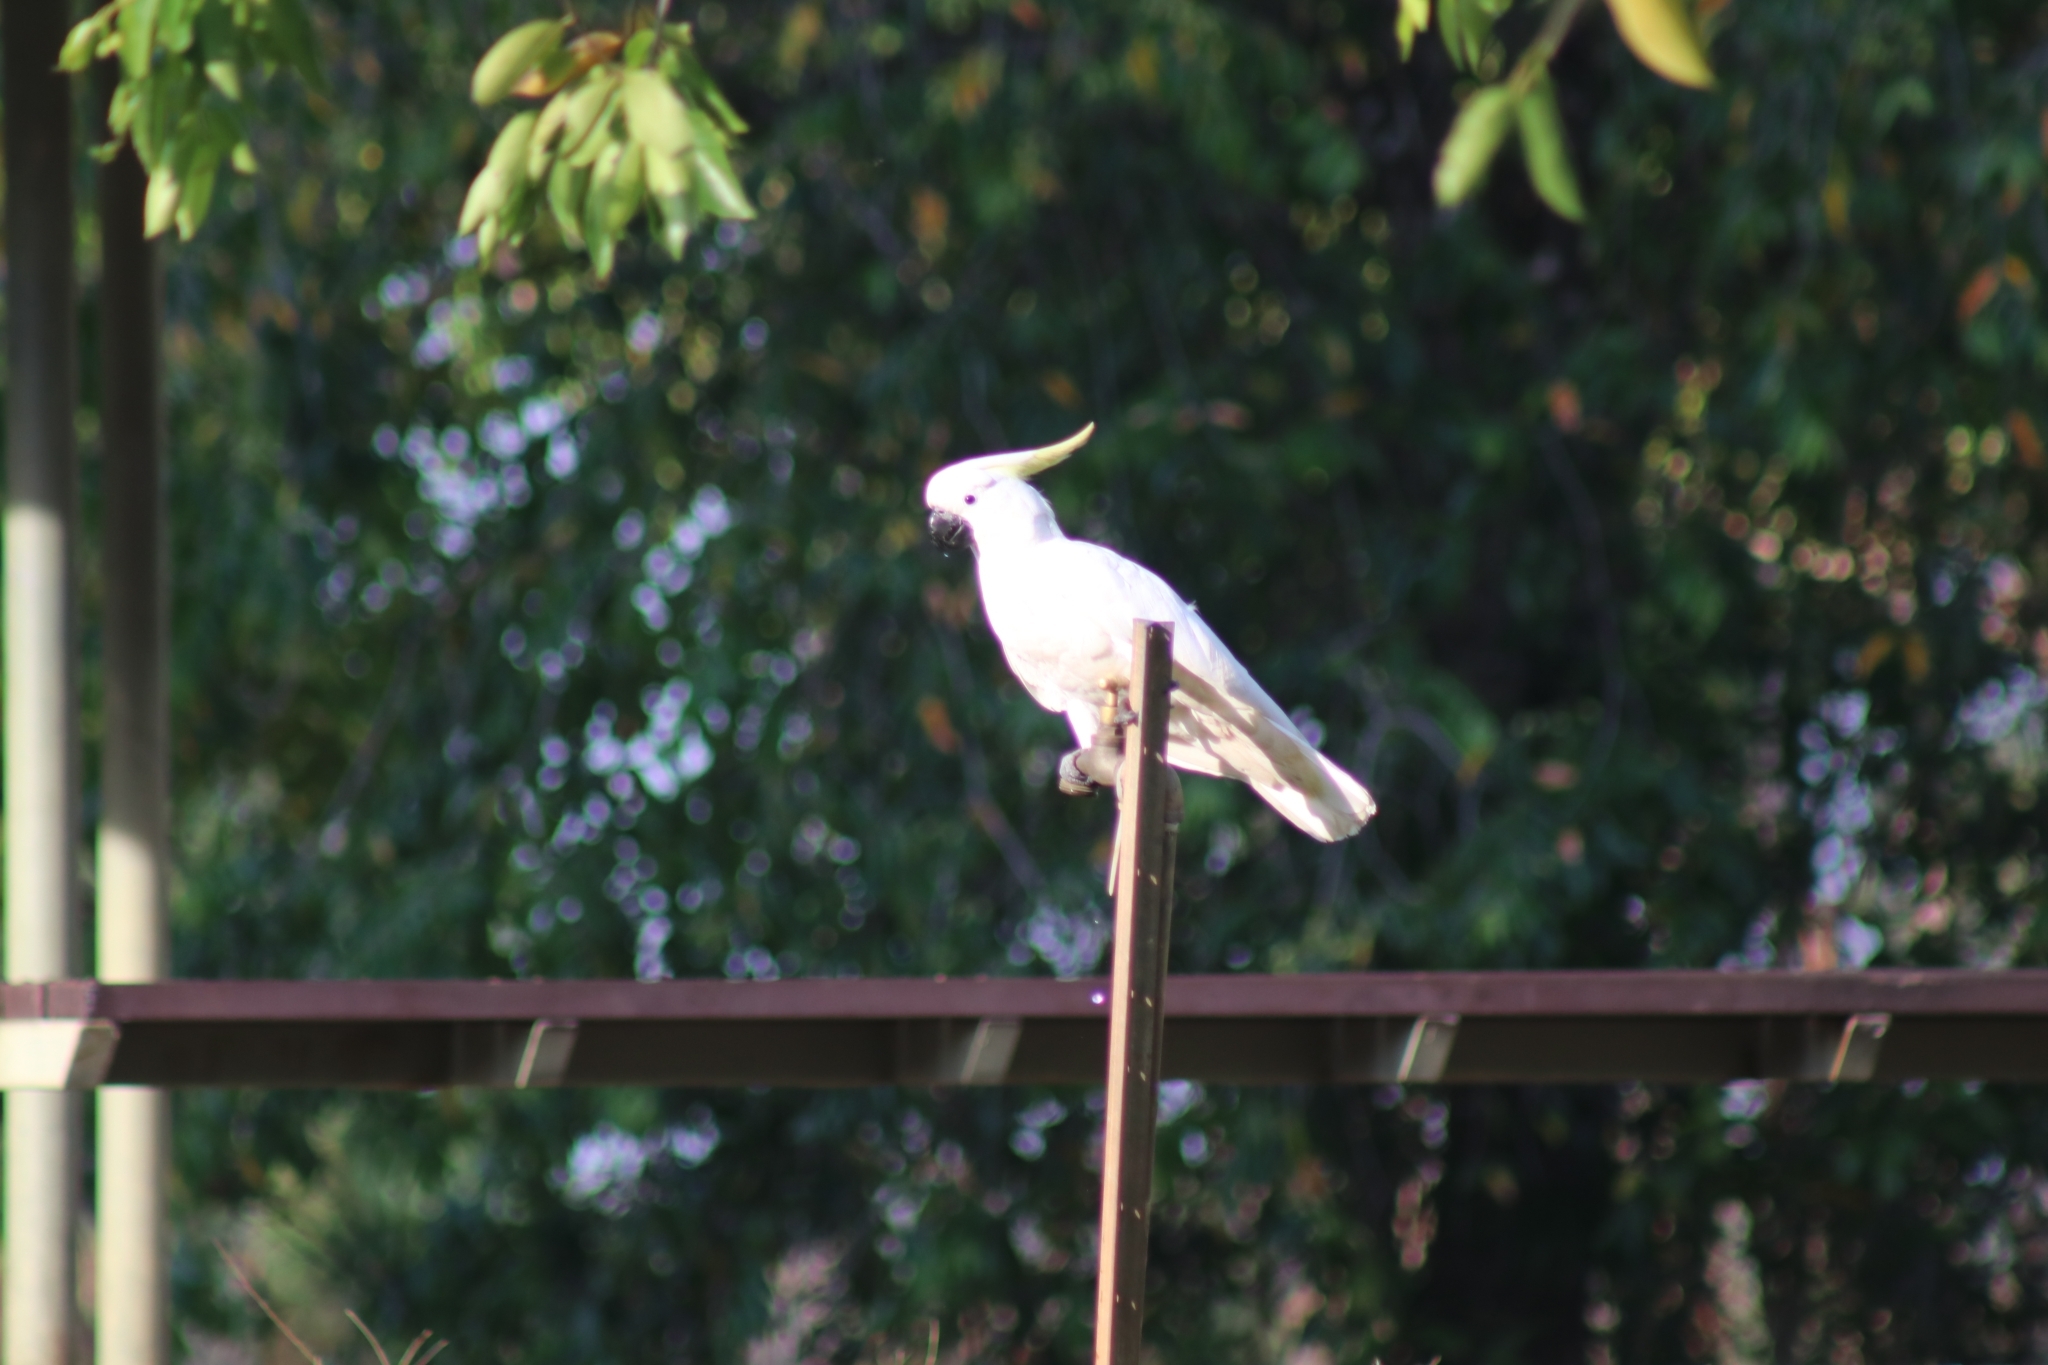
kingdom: Animalia
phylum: Chordata
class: Aves
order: Psittaciformes
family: Psittacidae
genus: Cacatua
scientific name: Cacatua galerita
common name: Sulphur-crested cockatoo
